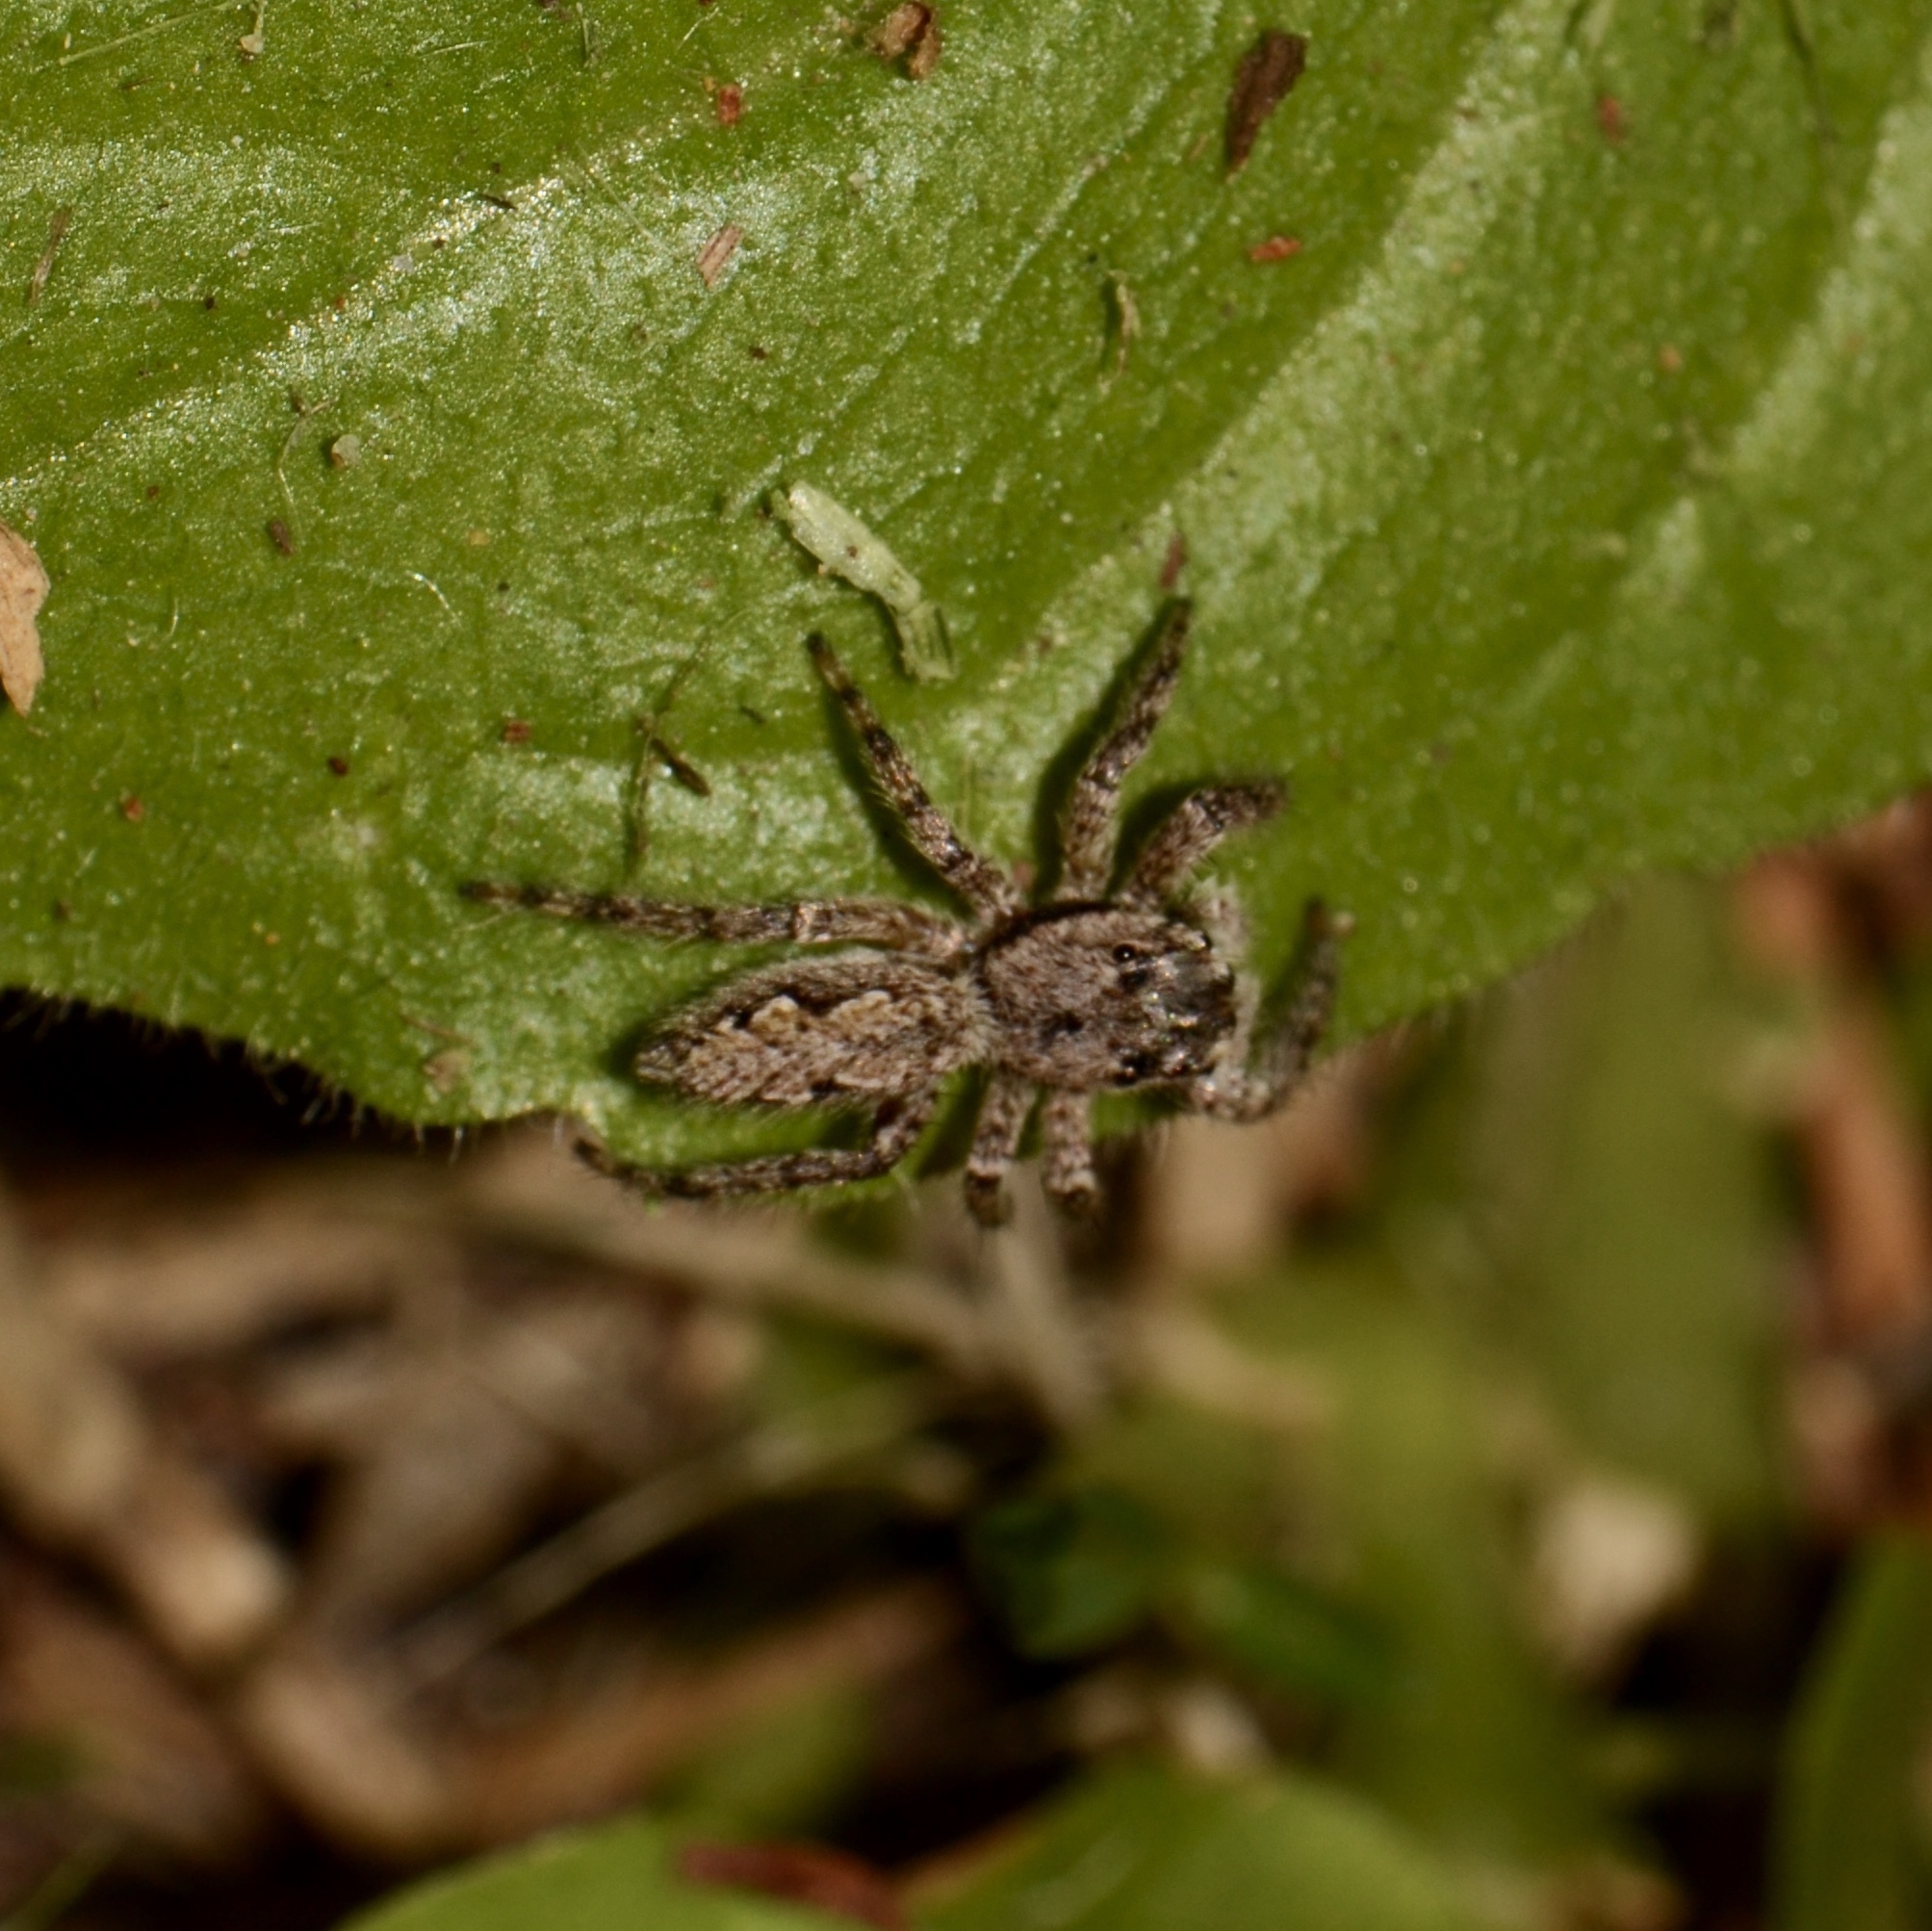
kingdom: Animalia
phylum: Arthropoda
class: Arachnida
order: Araneae
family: Salticidae
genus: Platycryptus
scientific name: Platycryptus undatus
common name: Tan jumping spider
